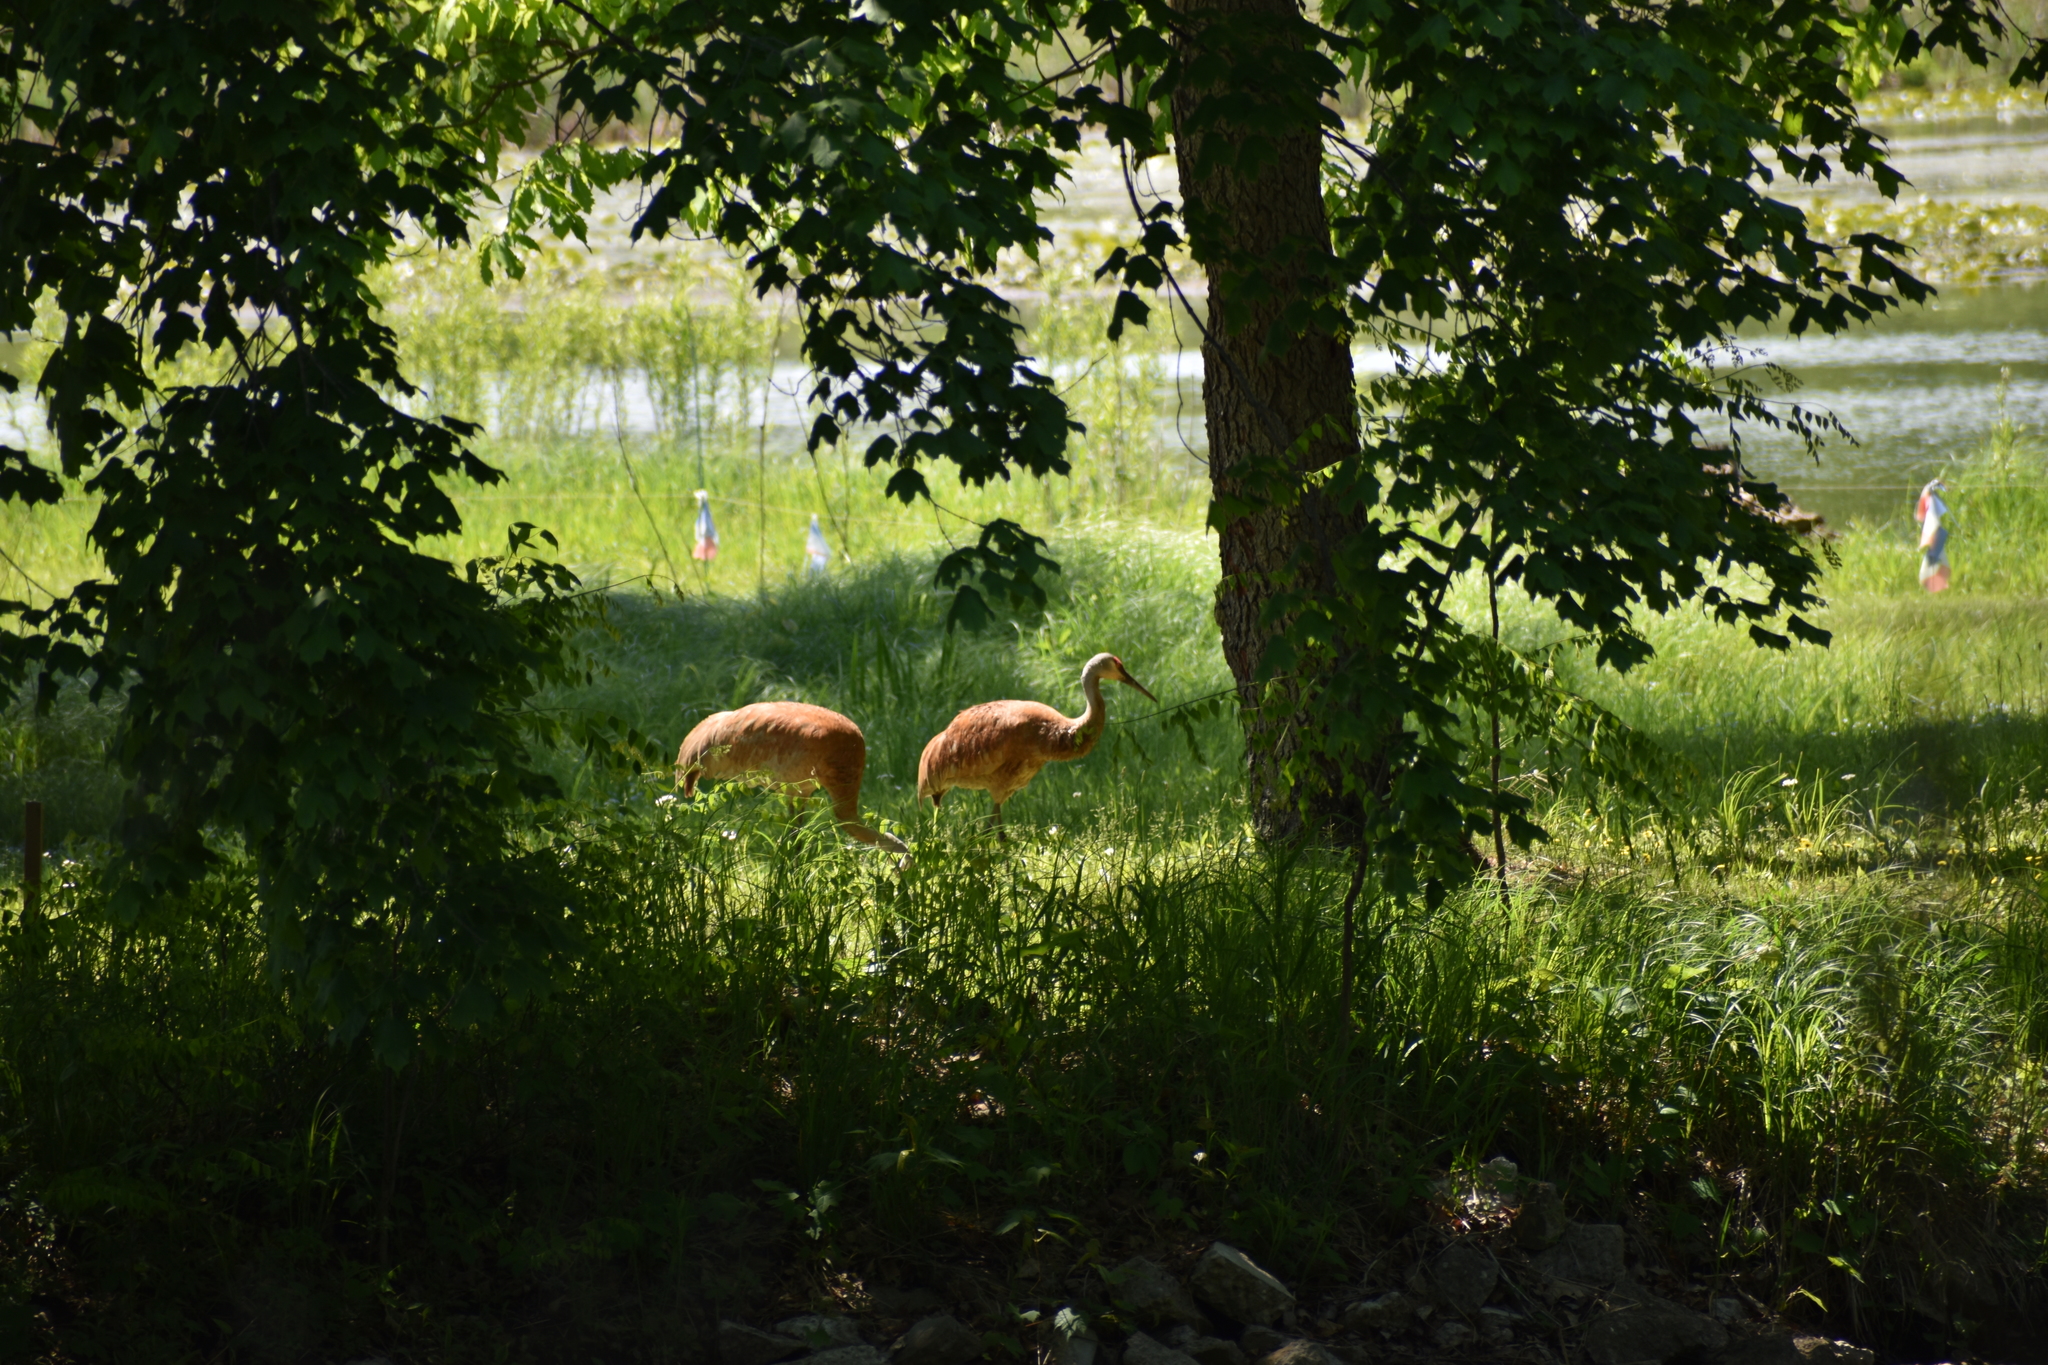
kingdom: Animalia
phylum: Chordata
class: Aves
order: Gruiformes
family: Gruidae
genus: Grus
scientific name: Grus canadensis
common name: Sandhill crane
